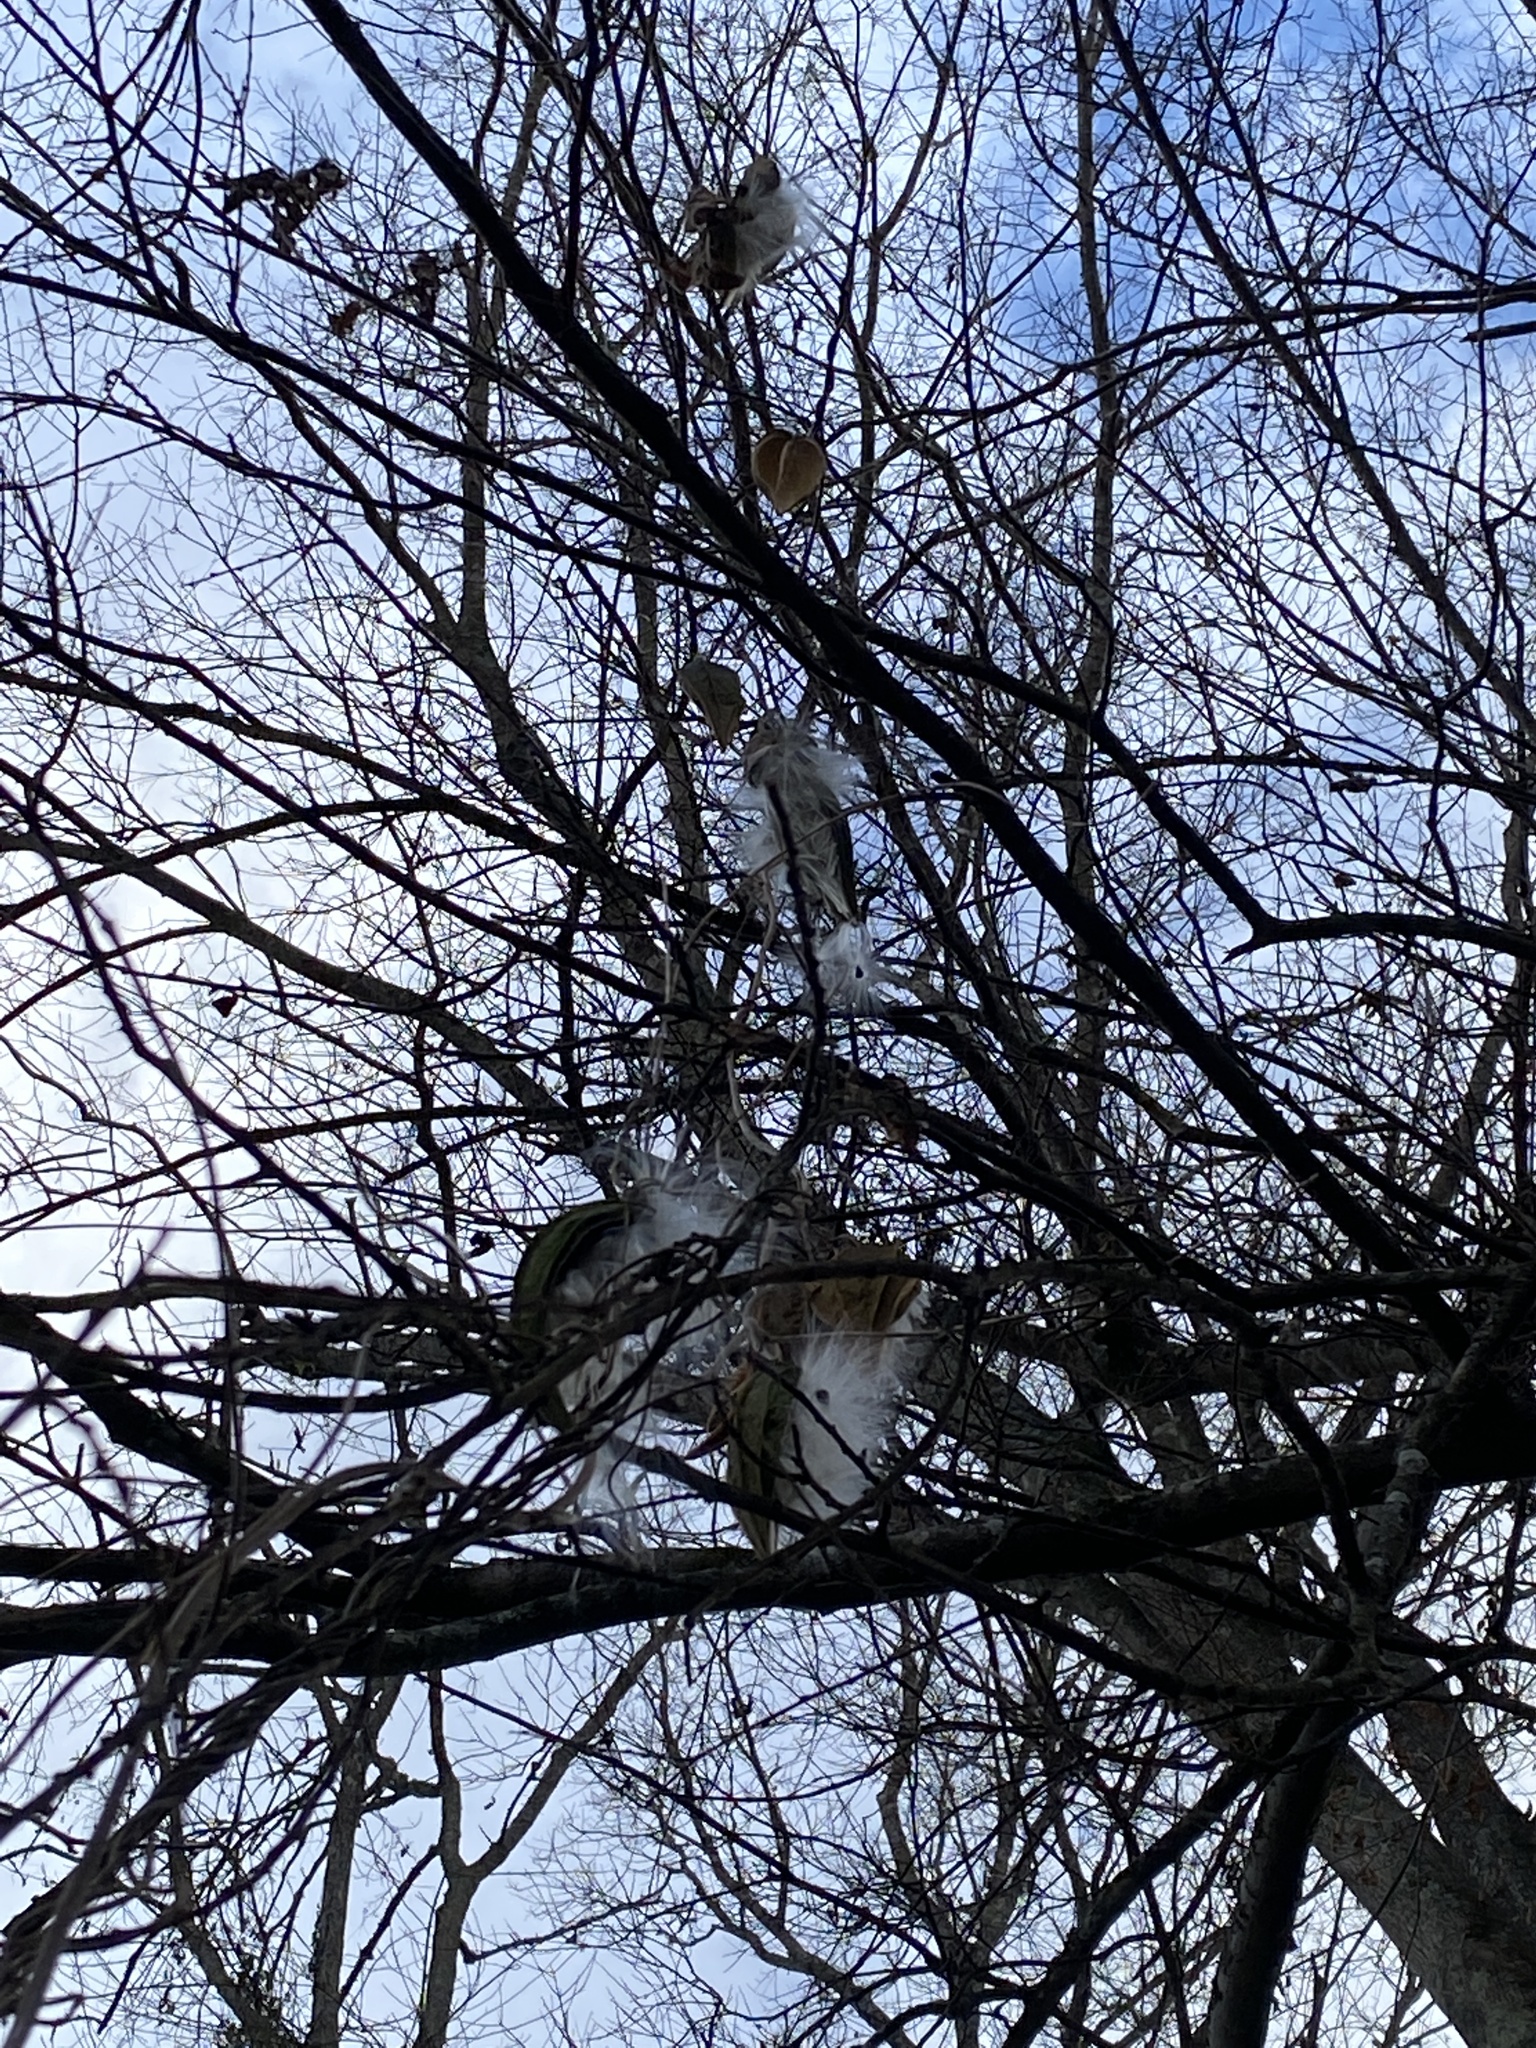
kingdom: Plantae
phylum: Tracheophyta
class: Magnoliopsida
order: Gentianales
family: Apocynaceae
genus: Gonolobus
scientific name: Gonolobus suberosus
